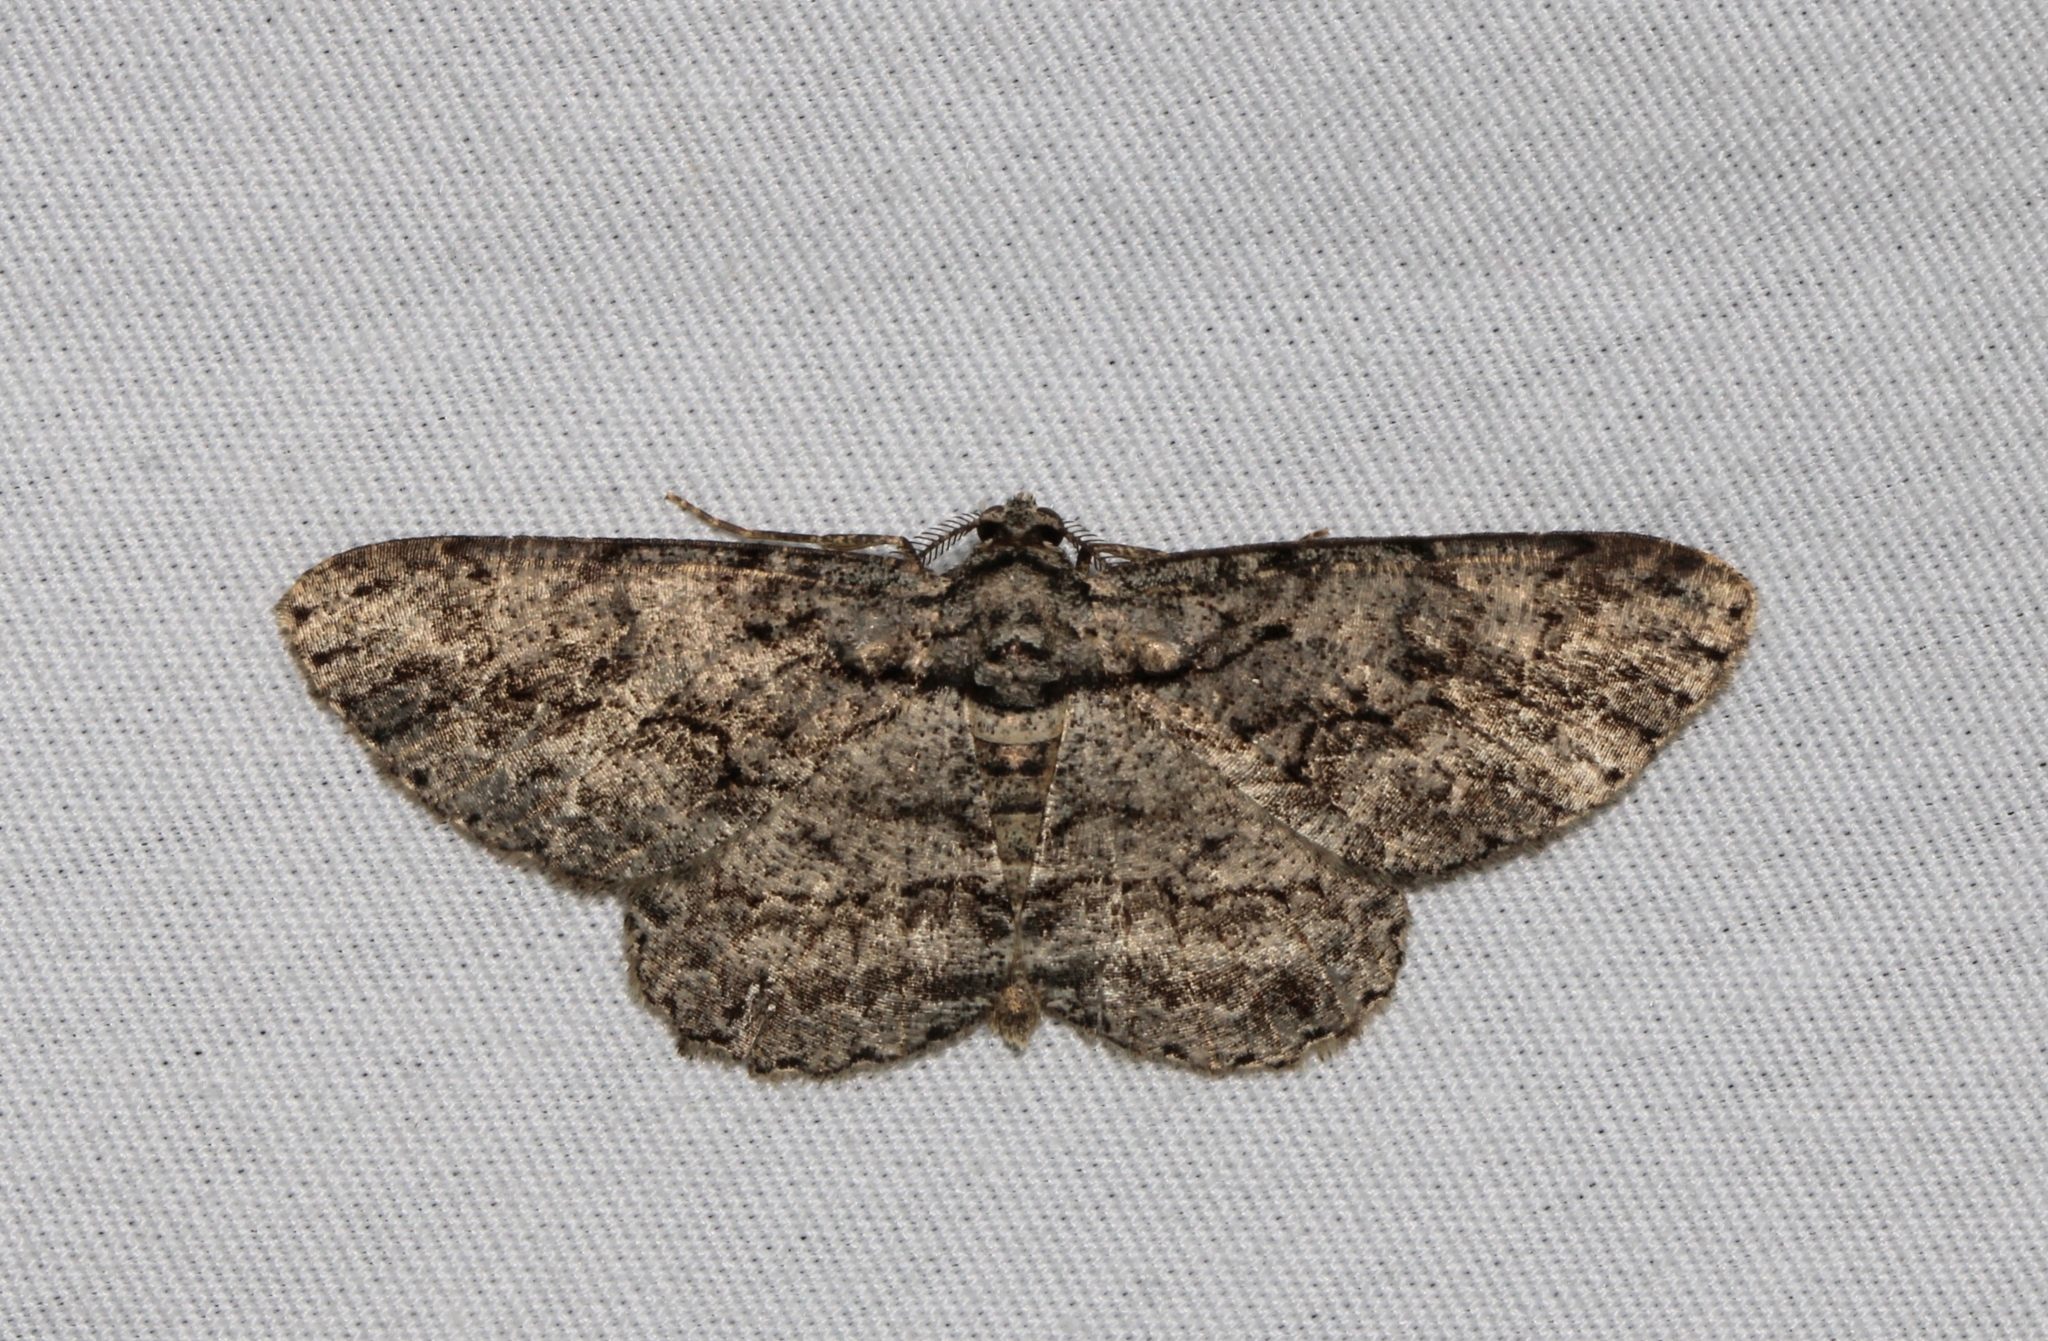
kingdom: Animalia
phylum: Arthropoda
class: Insecta
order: Lepidoptera
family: Geometridae
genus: Anavitrinella
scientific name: Anavitrinella pampinaria
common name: Common gray
